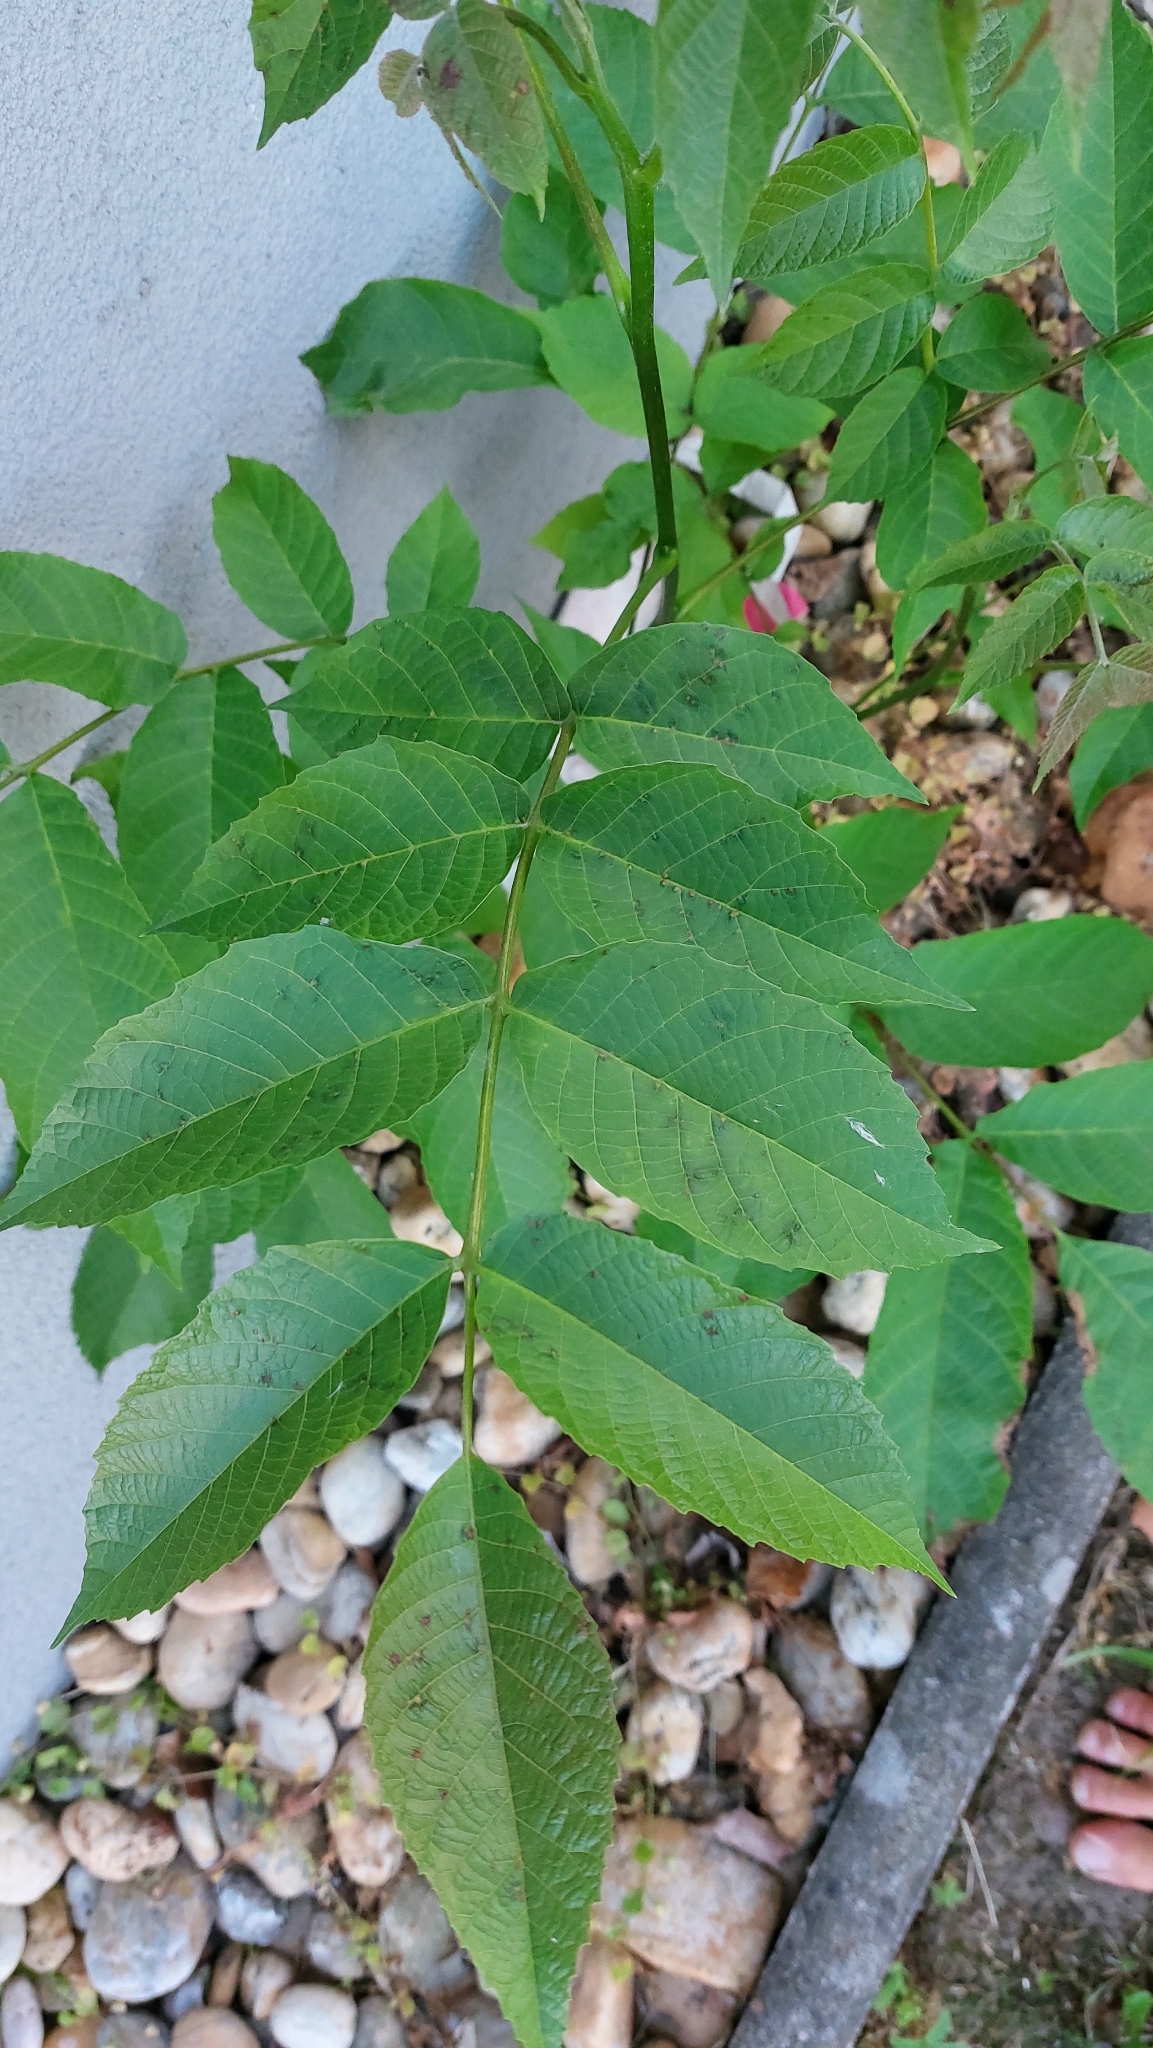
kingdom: Plantae
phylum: Tracheophyta
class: Magnoliopsida
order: Fagales
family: Juglandaceae
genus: Juglans
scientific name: Juglans regia
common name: Walnut
